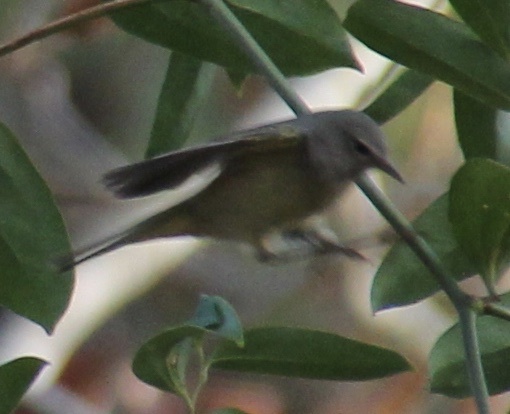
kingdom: Animalia
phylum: Chordata
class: Aves
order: Passeriformes
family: Parulidae
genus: Leiothlypis
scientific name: Leiothlypis celata
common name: Orange-crowned warbler
